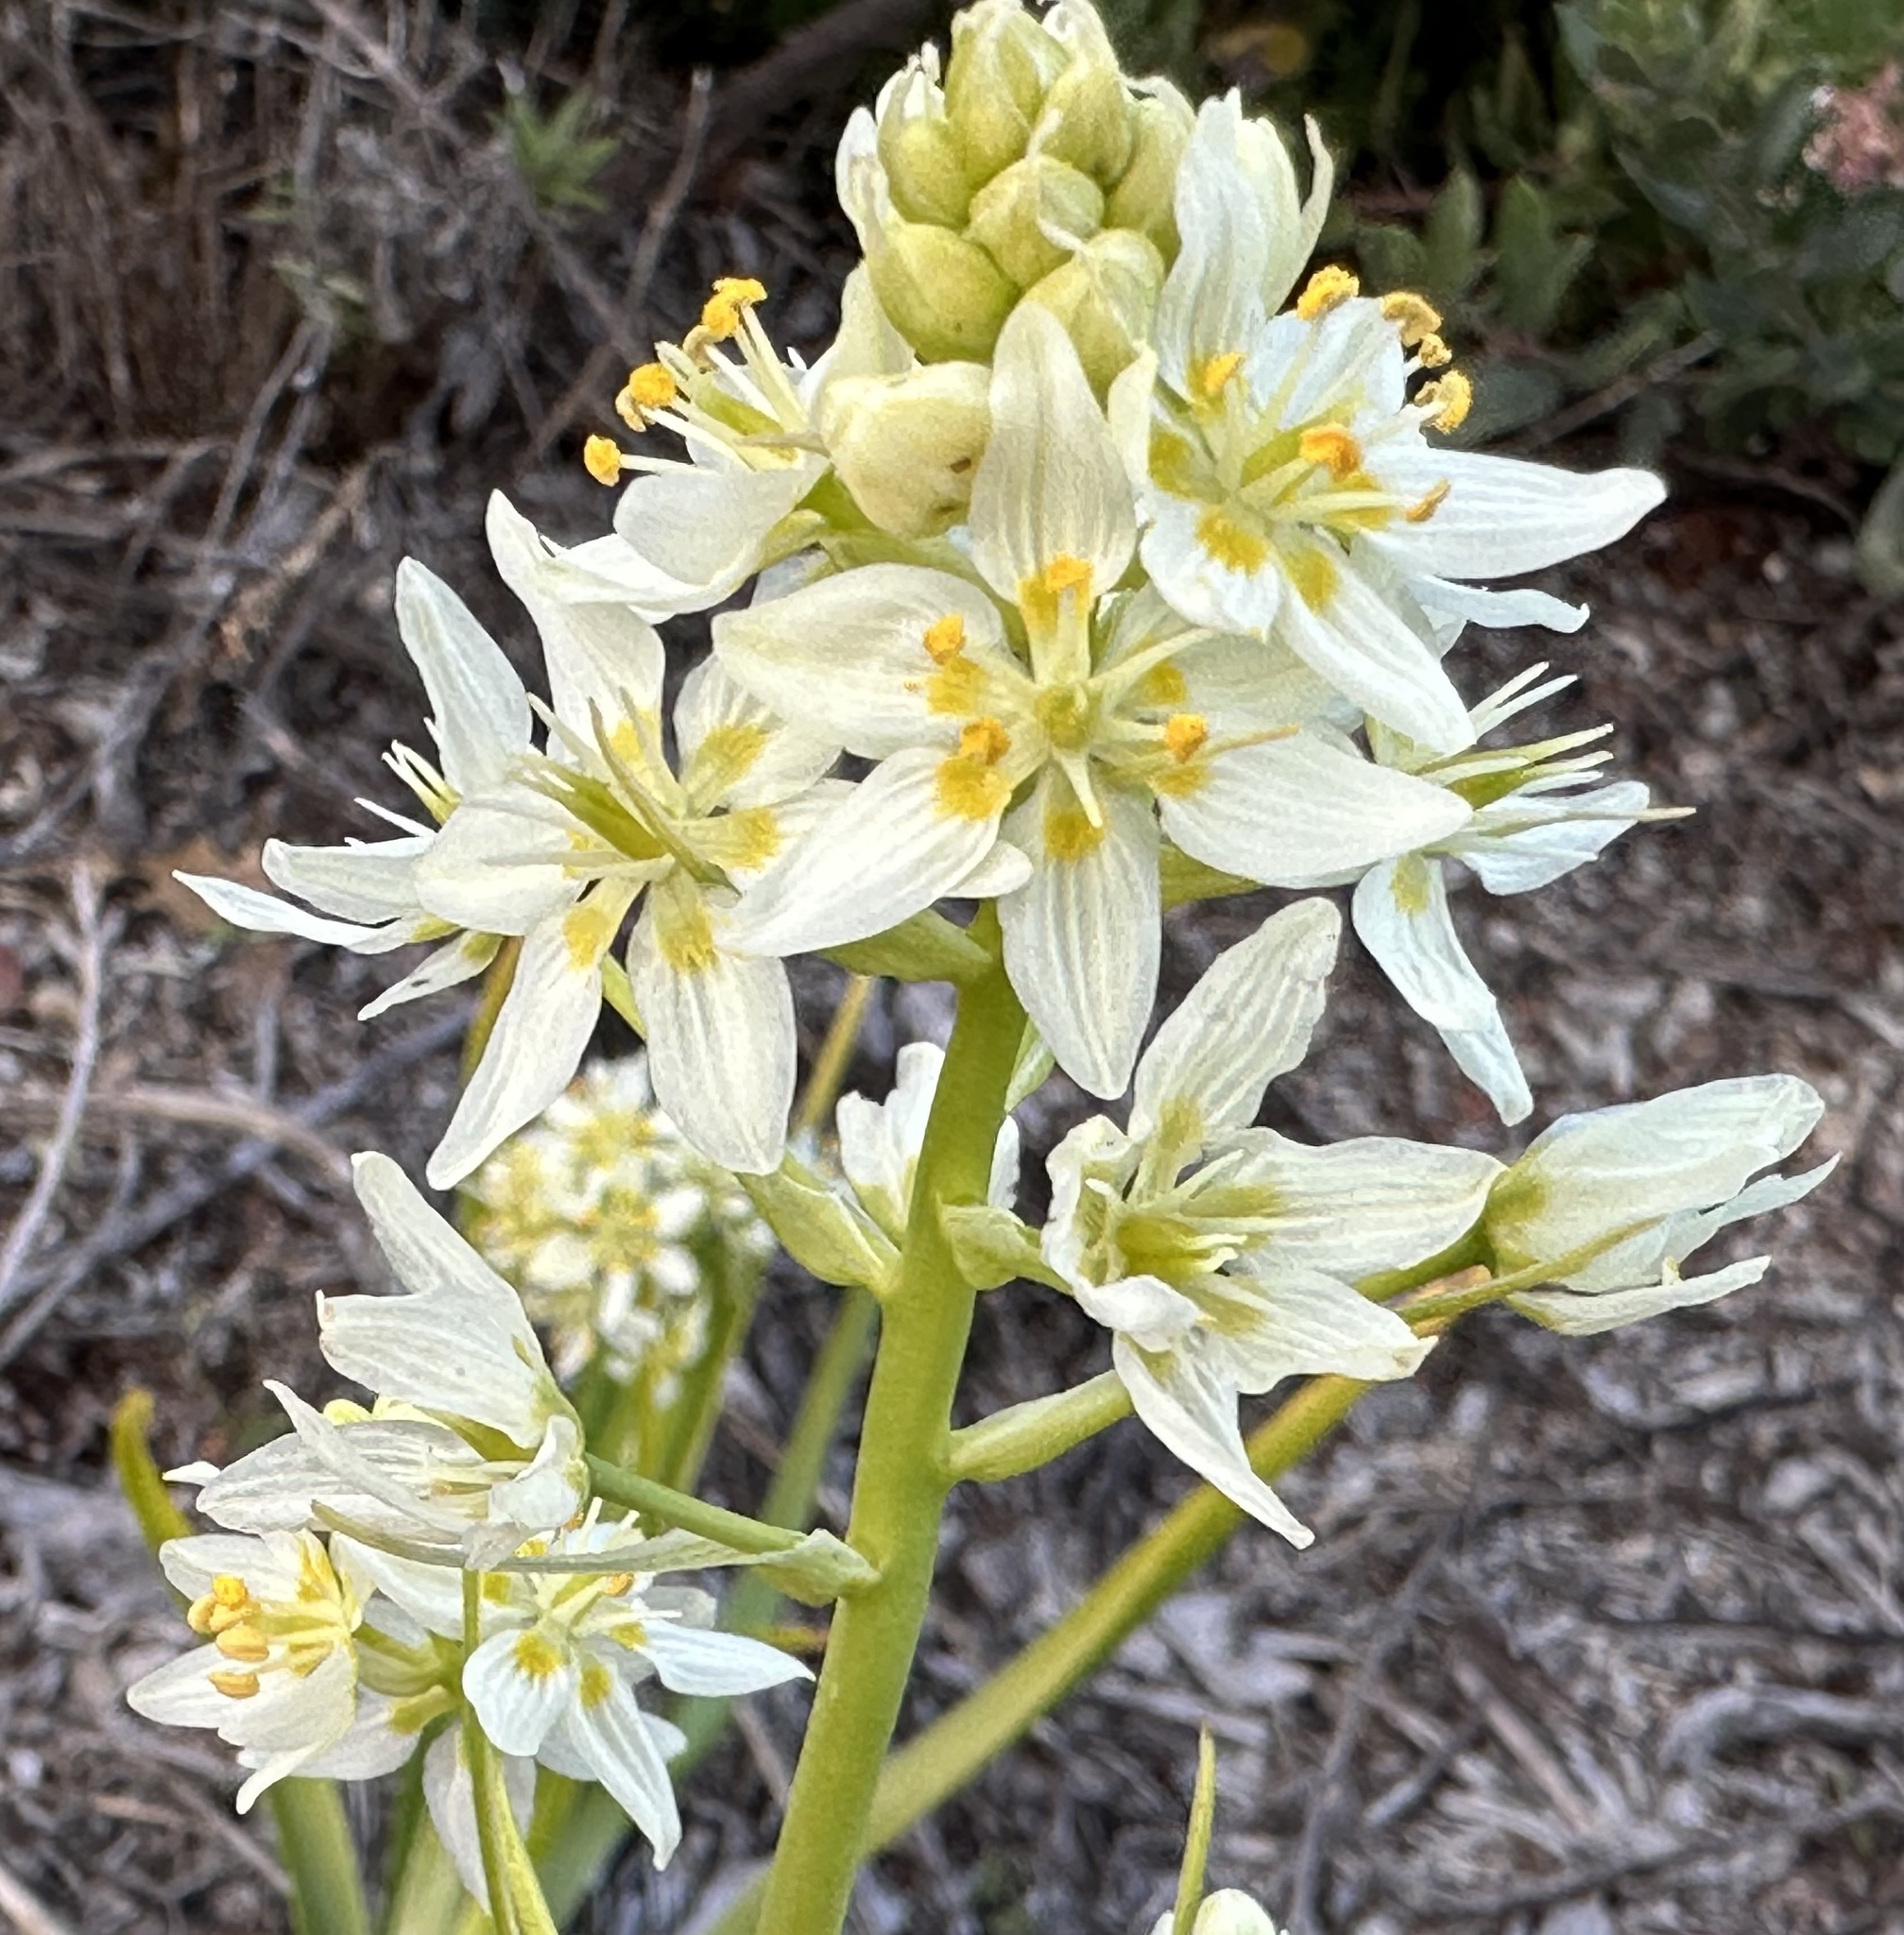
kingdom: Plantae
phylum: Tracheophyta
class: Liliopsida
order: Liliales
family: Melanthiaceae
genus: Toxicoscordion
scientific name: Toxicoscordion fremontii
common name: Fremont's death camas
